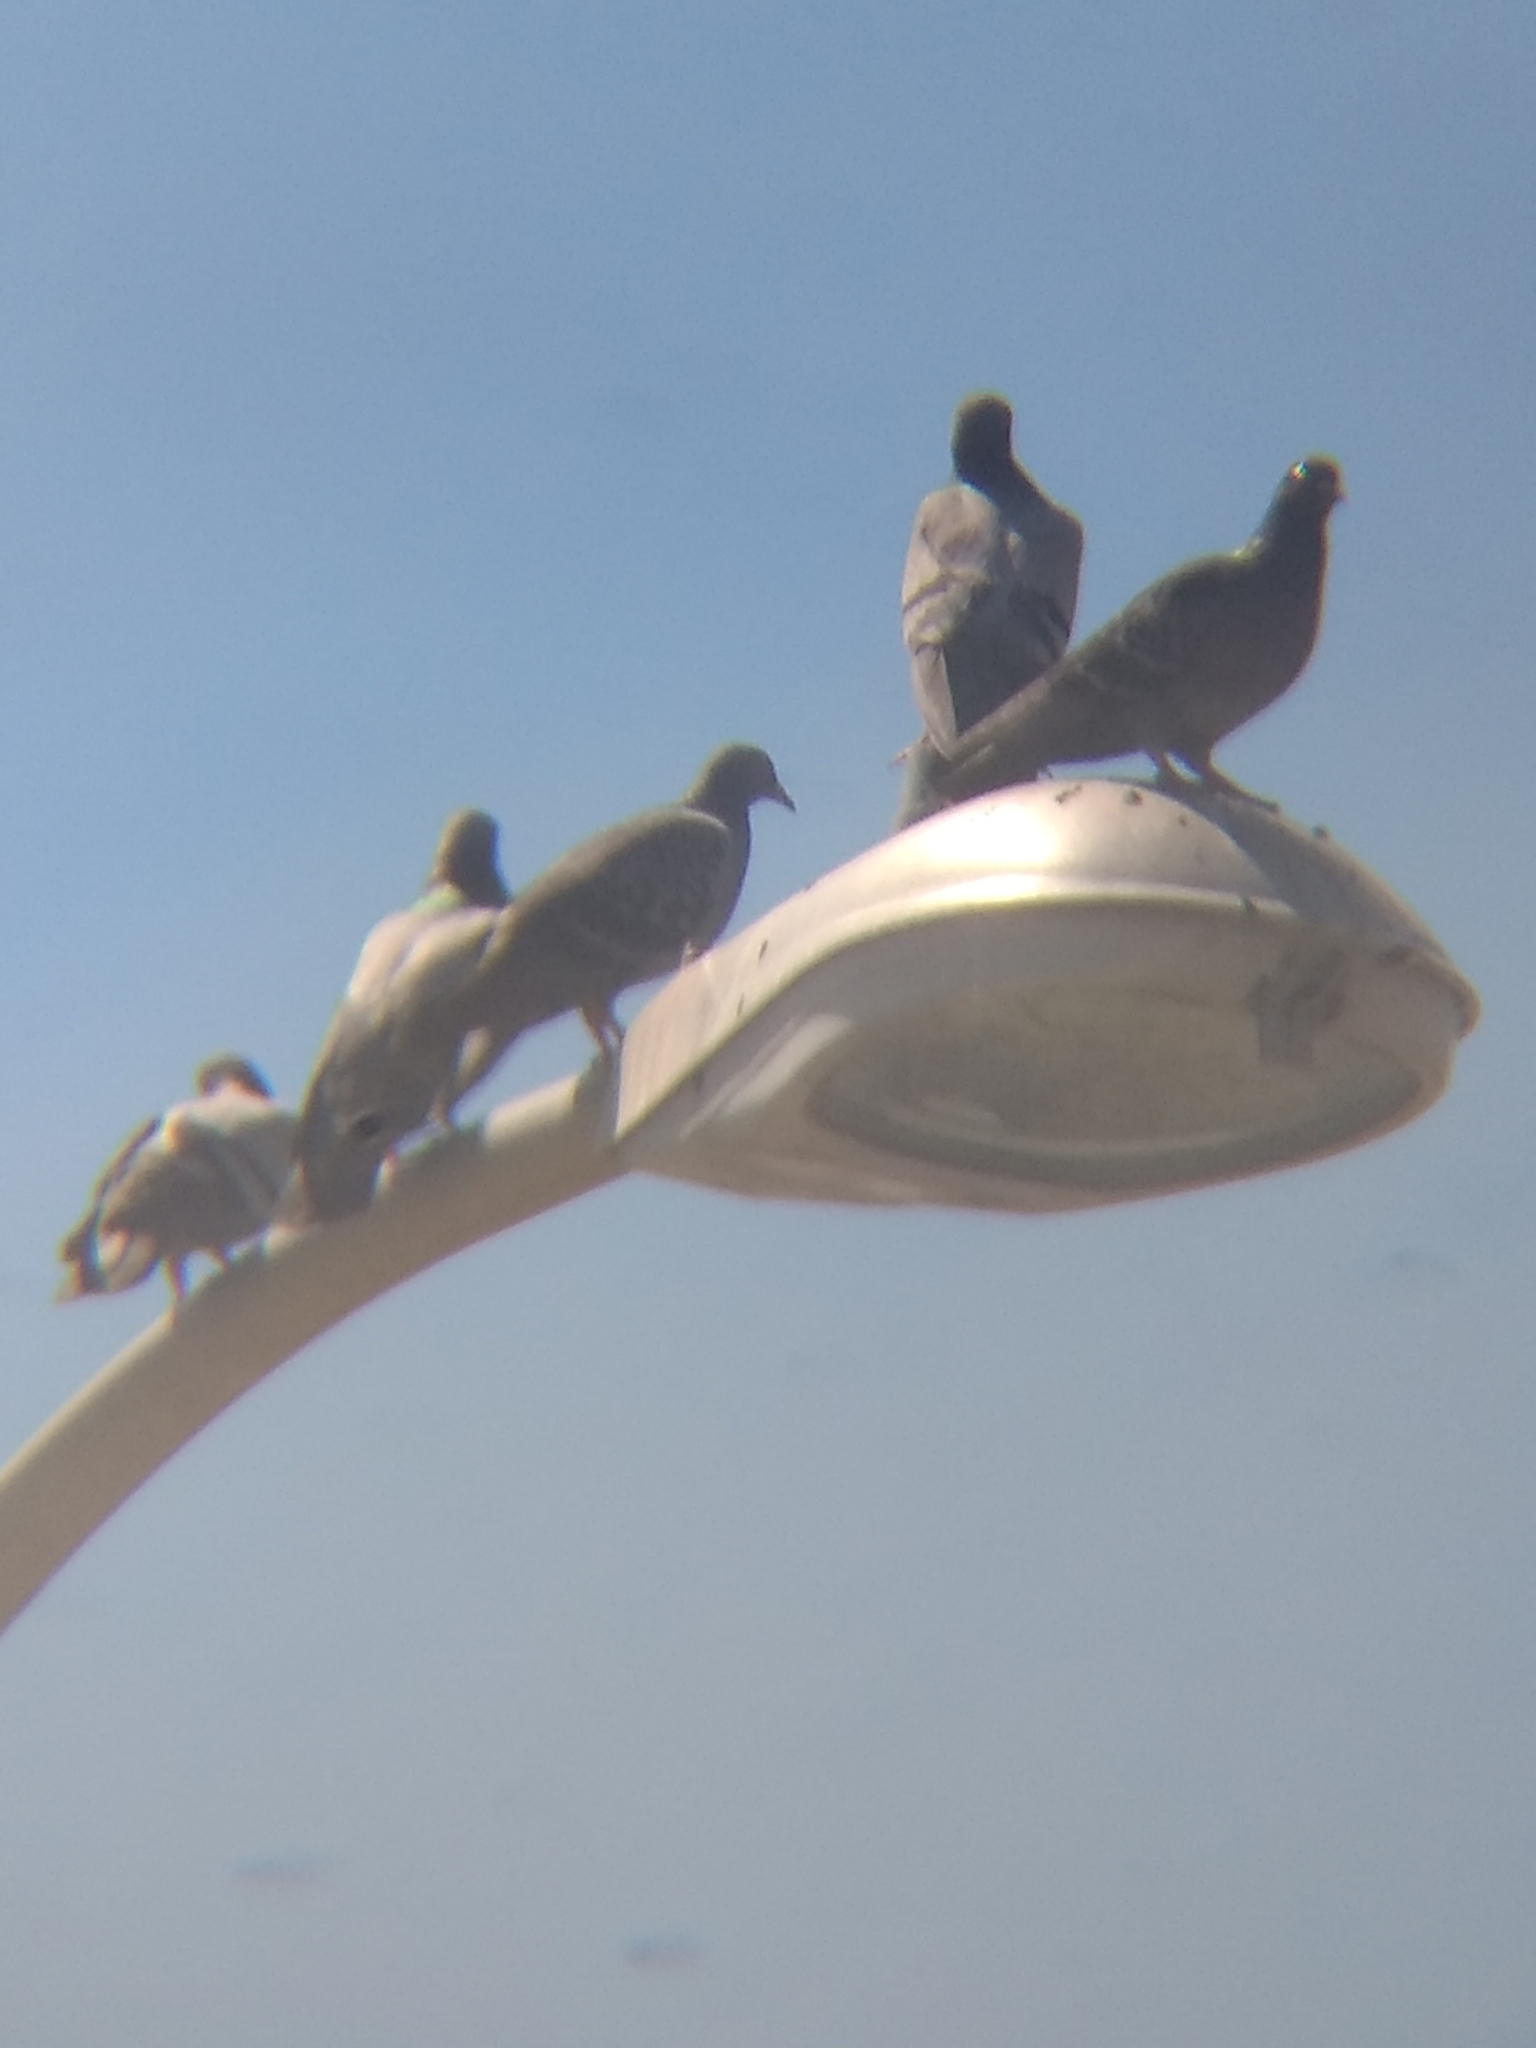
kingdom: Animalia
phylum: Chordata
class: Aves
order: Columbiformes
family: Columbidae
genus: Columba
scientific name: Columba livia
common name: Rock pigeon
